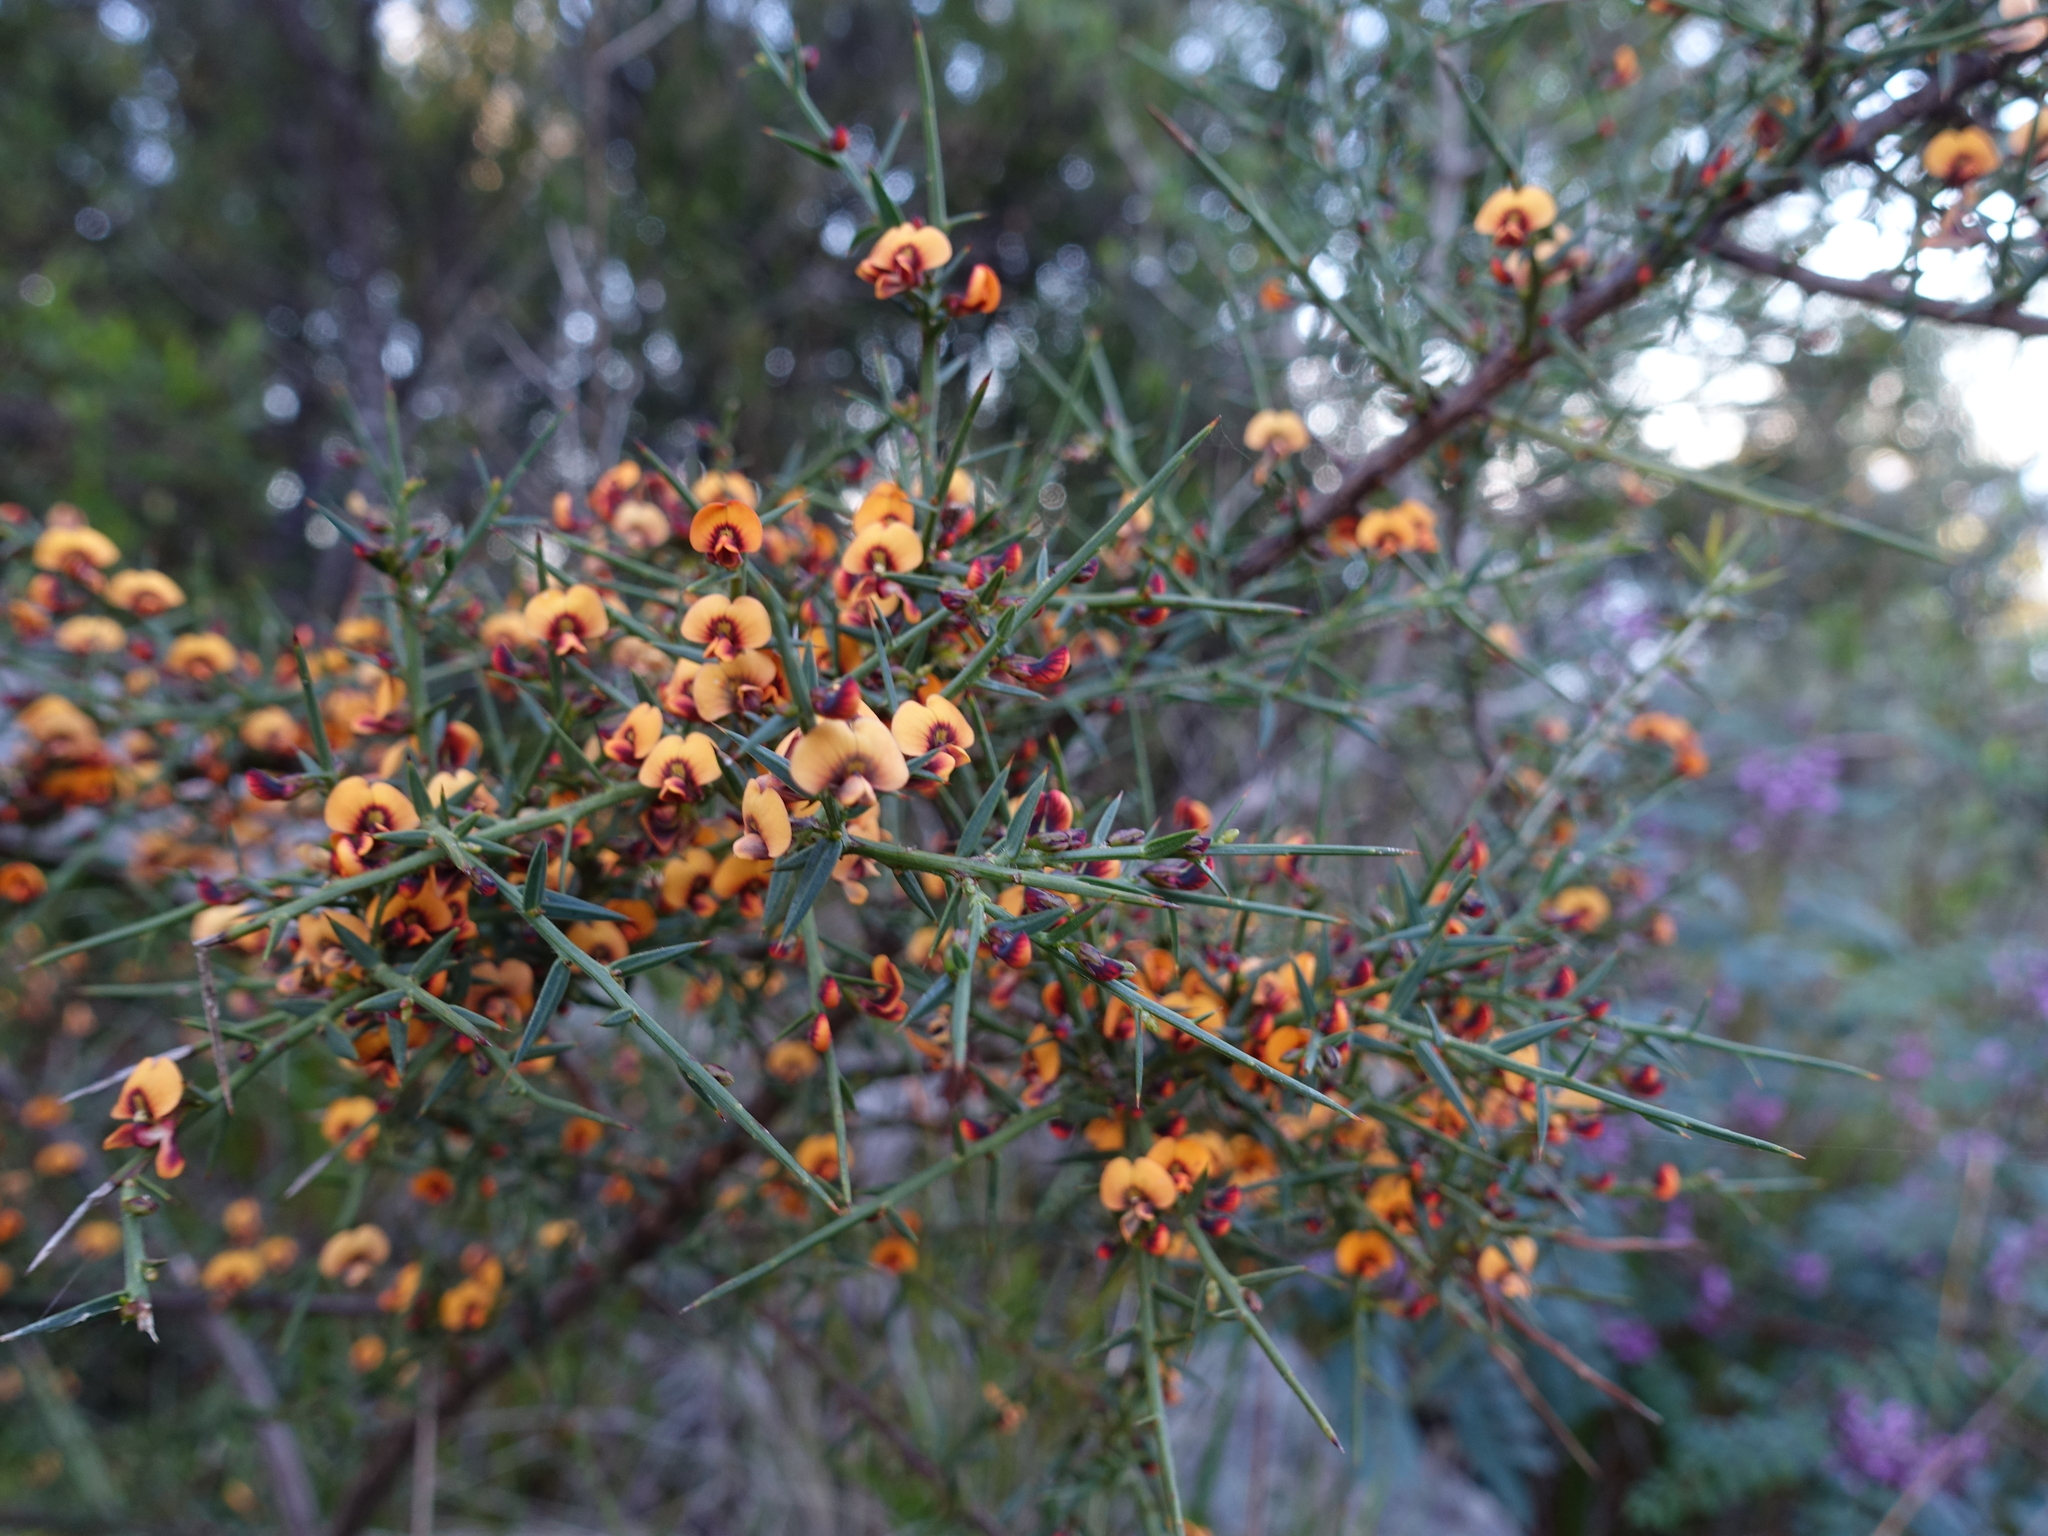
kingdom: Plantae
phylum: Tracheophyta
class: Magnoliopsida
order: Fabales
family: Fabaceae
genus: Daviesia
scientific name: Daviesia ulicifolia
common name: Gorse bitter-pea
